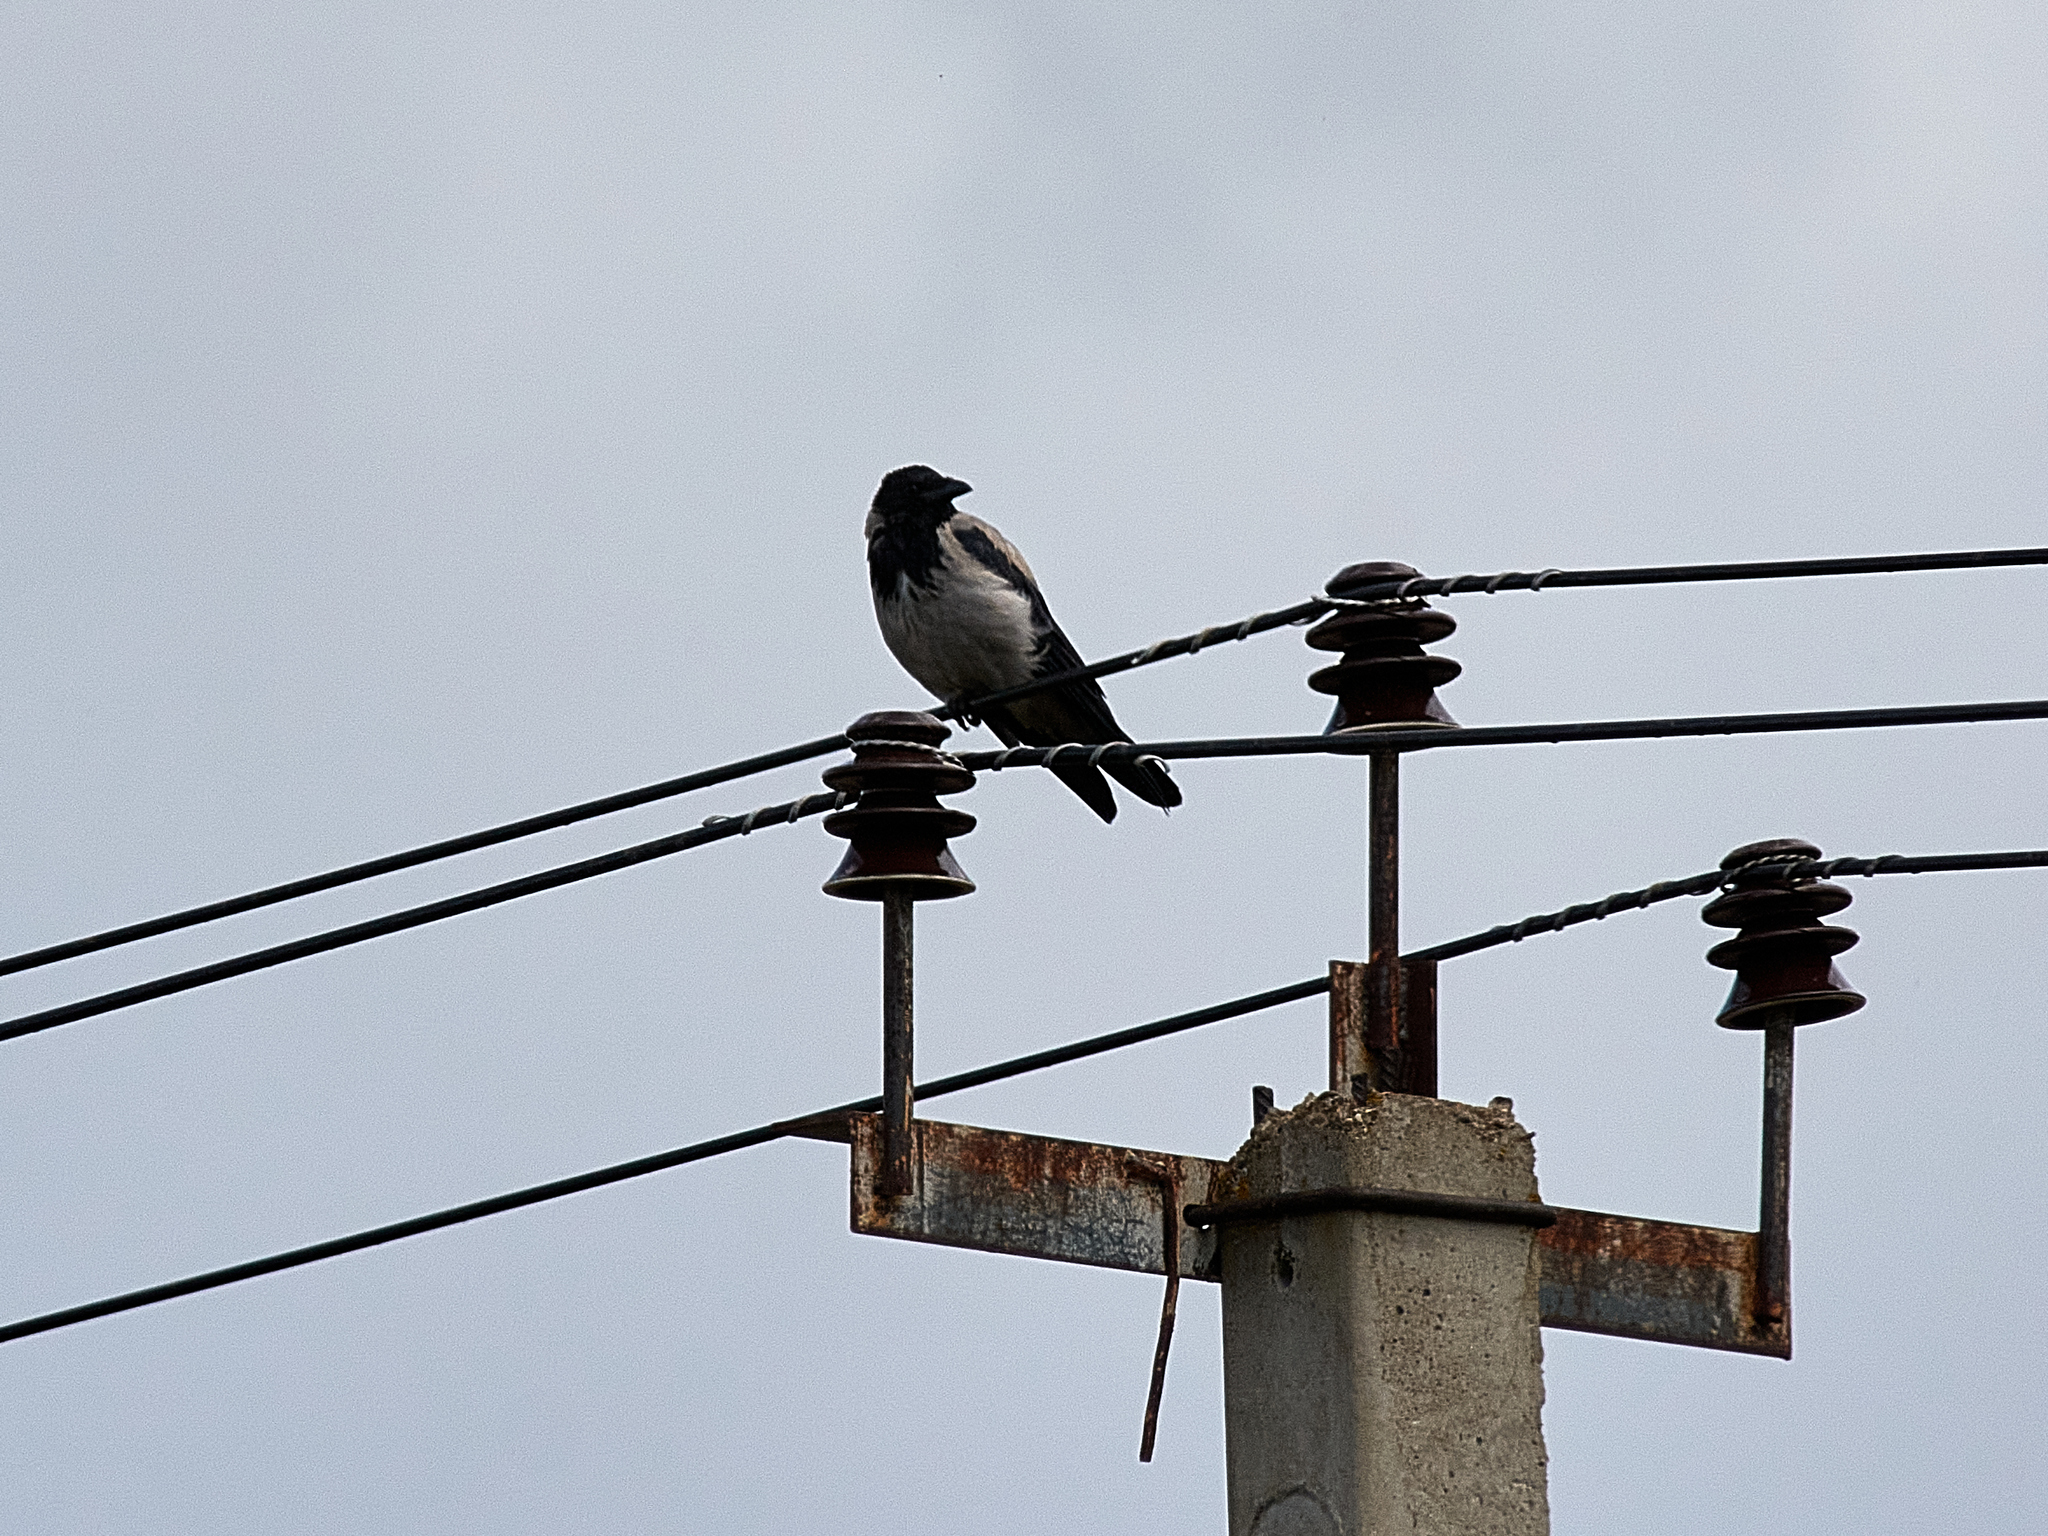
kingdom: Animalia
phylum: Chordata
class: Aves
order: Passeriformes
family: Corvidae
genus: Corvus
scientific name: Corvus cornix
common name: Hooded crow
